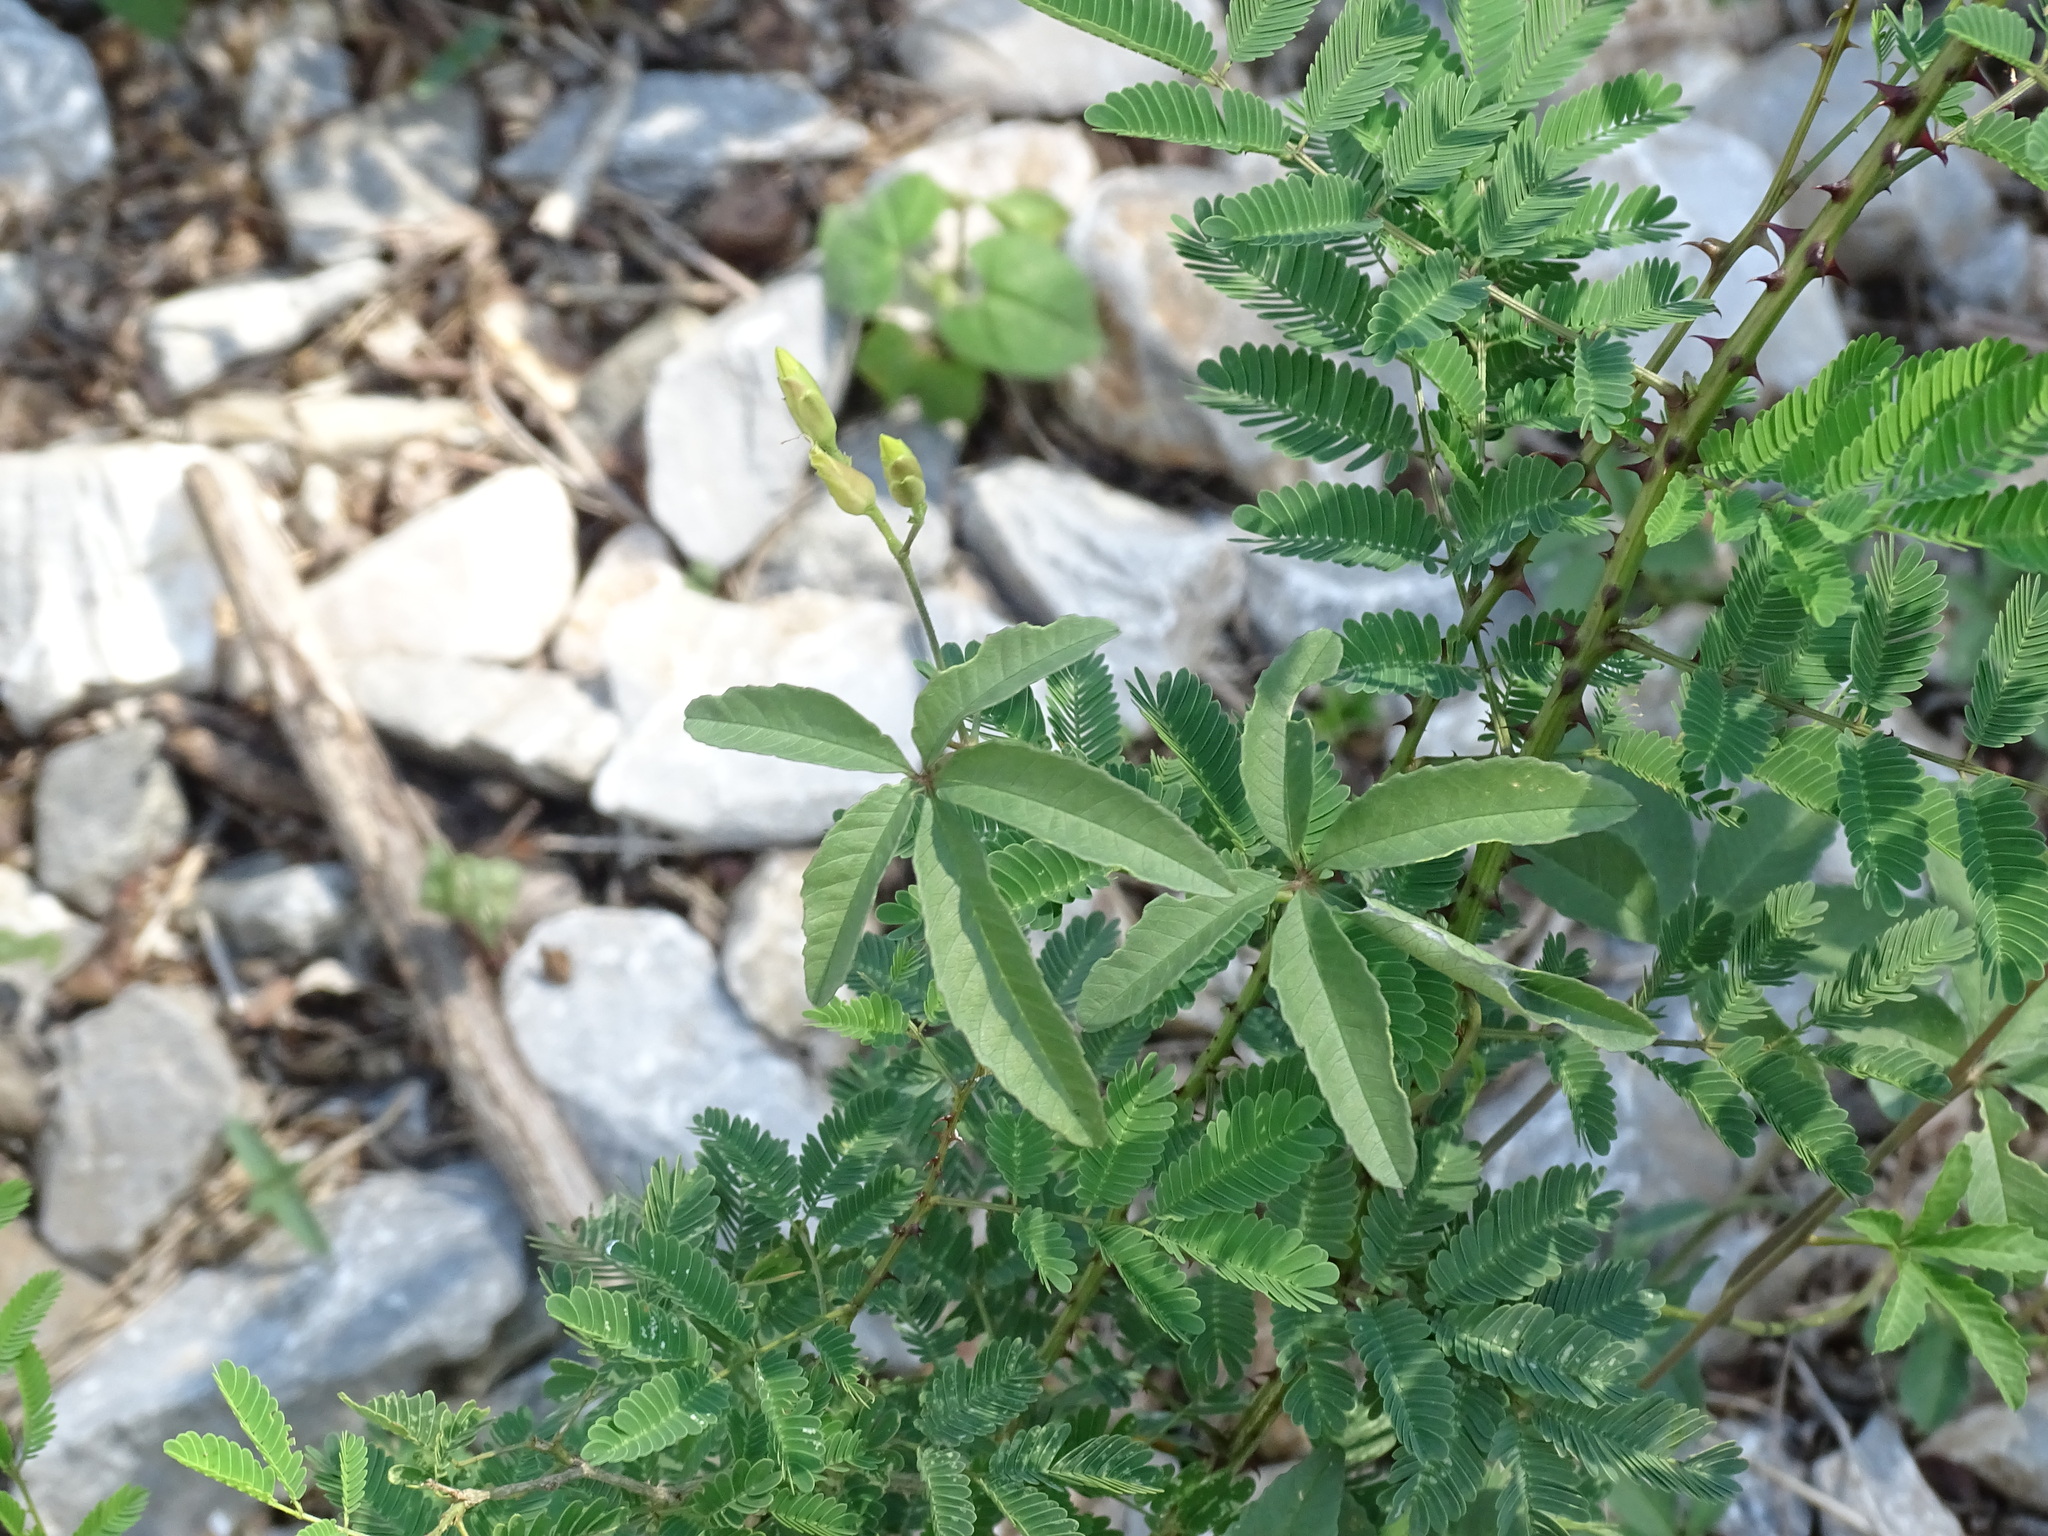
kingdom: Plantae
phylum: Tracheophyta
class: Magnoliopsida
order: Solanales
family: Convolvulaceae
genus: Distimake
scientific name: Distimake quinquefolius
